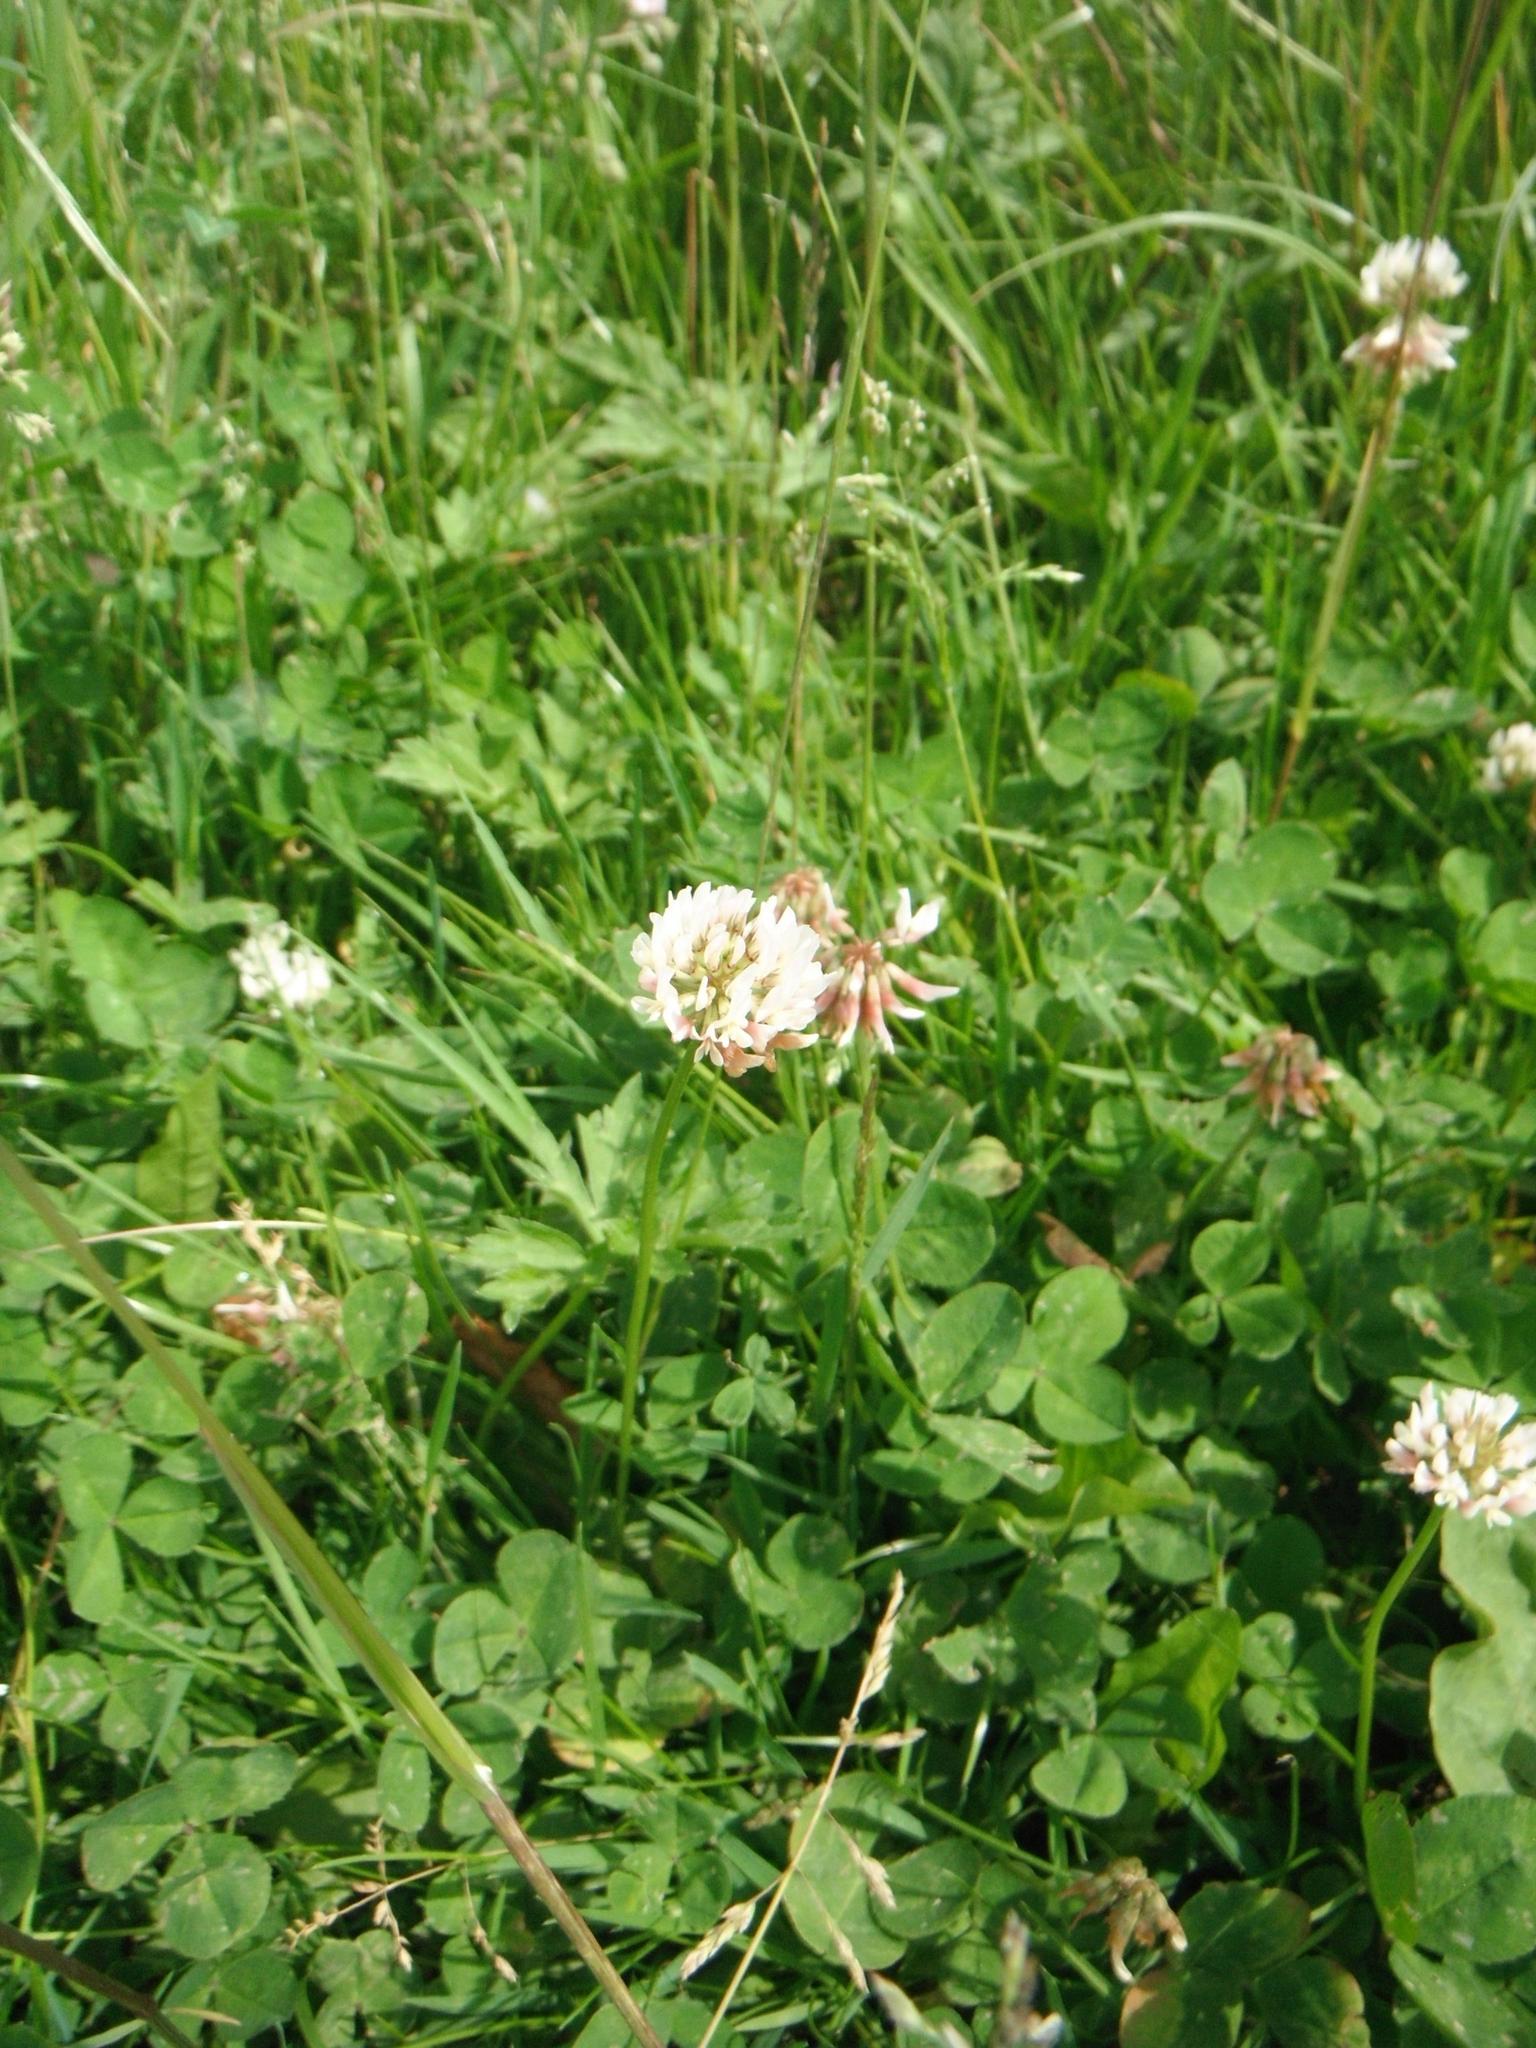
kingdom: Plantae
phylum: Tracheophyta
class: Magnoliopsida
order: Fabales
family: Fabaceae
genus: Trifolium
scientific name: Trifolium repens
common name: White clover
